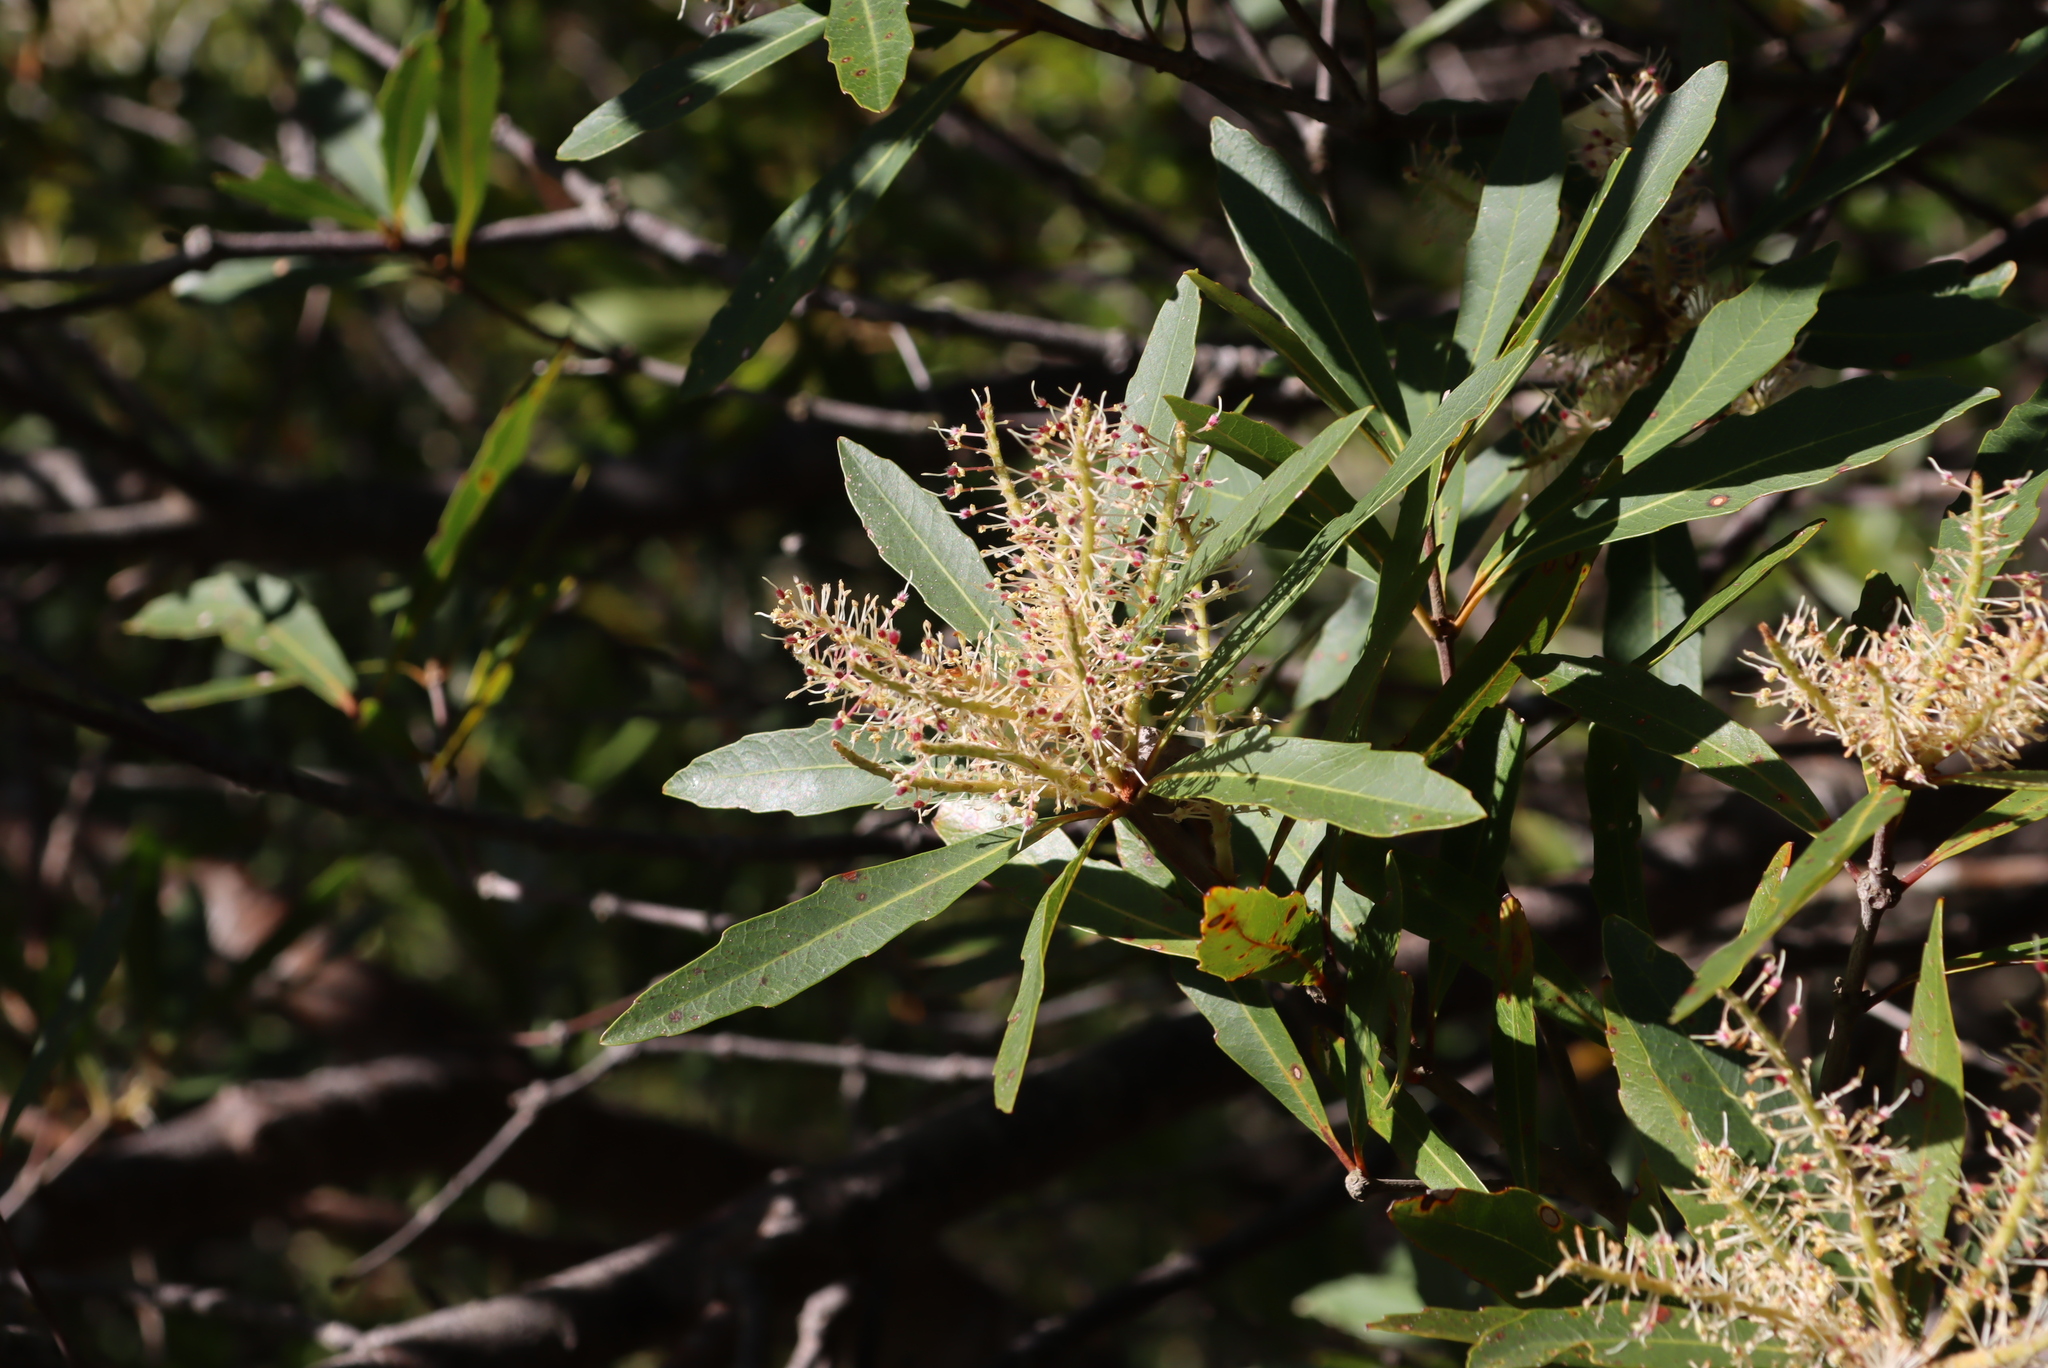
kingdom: Plantae
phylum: Tracheophyta
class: Magnoliopsida
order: Proteales
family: Proteaceae
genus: Brabejum
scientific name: Brabejum stellatifolium
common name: Wild almond
